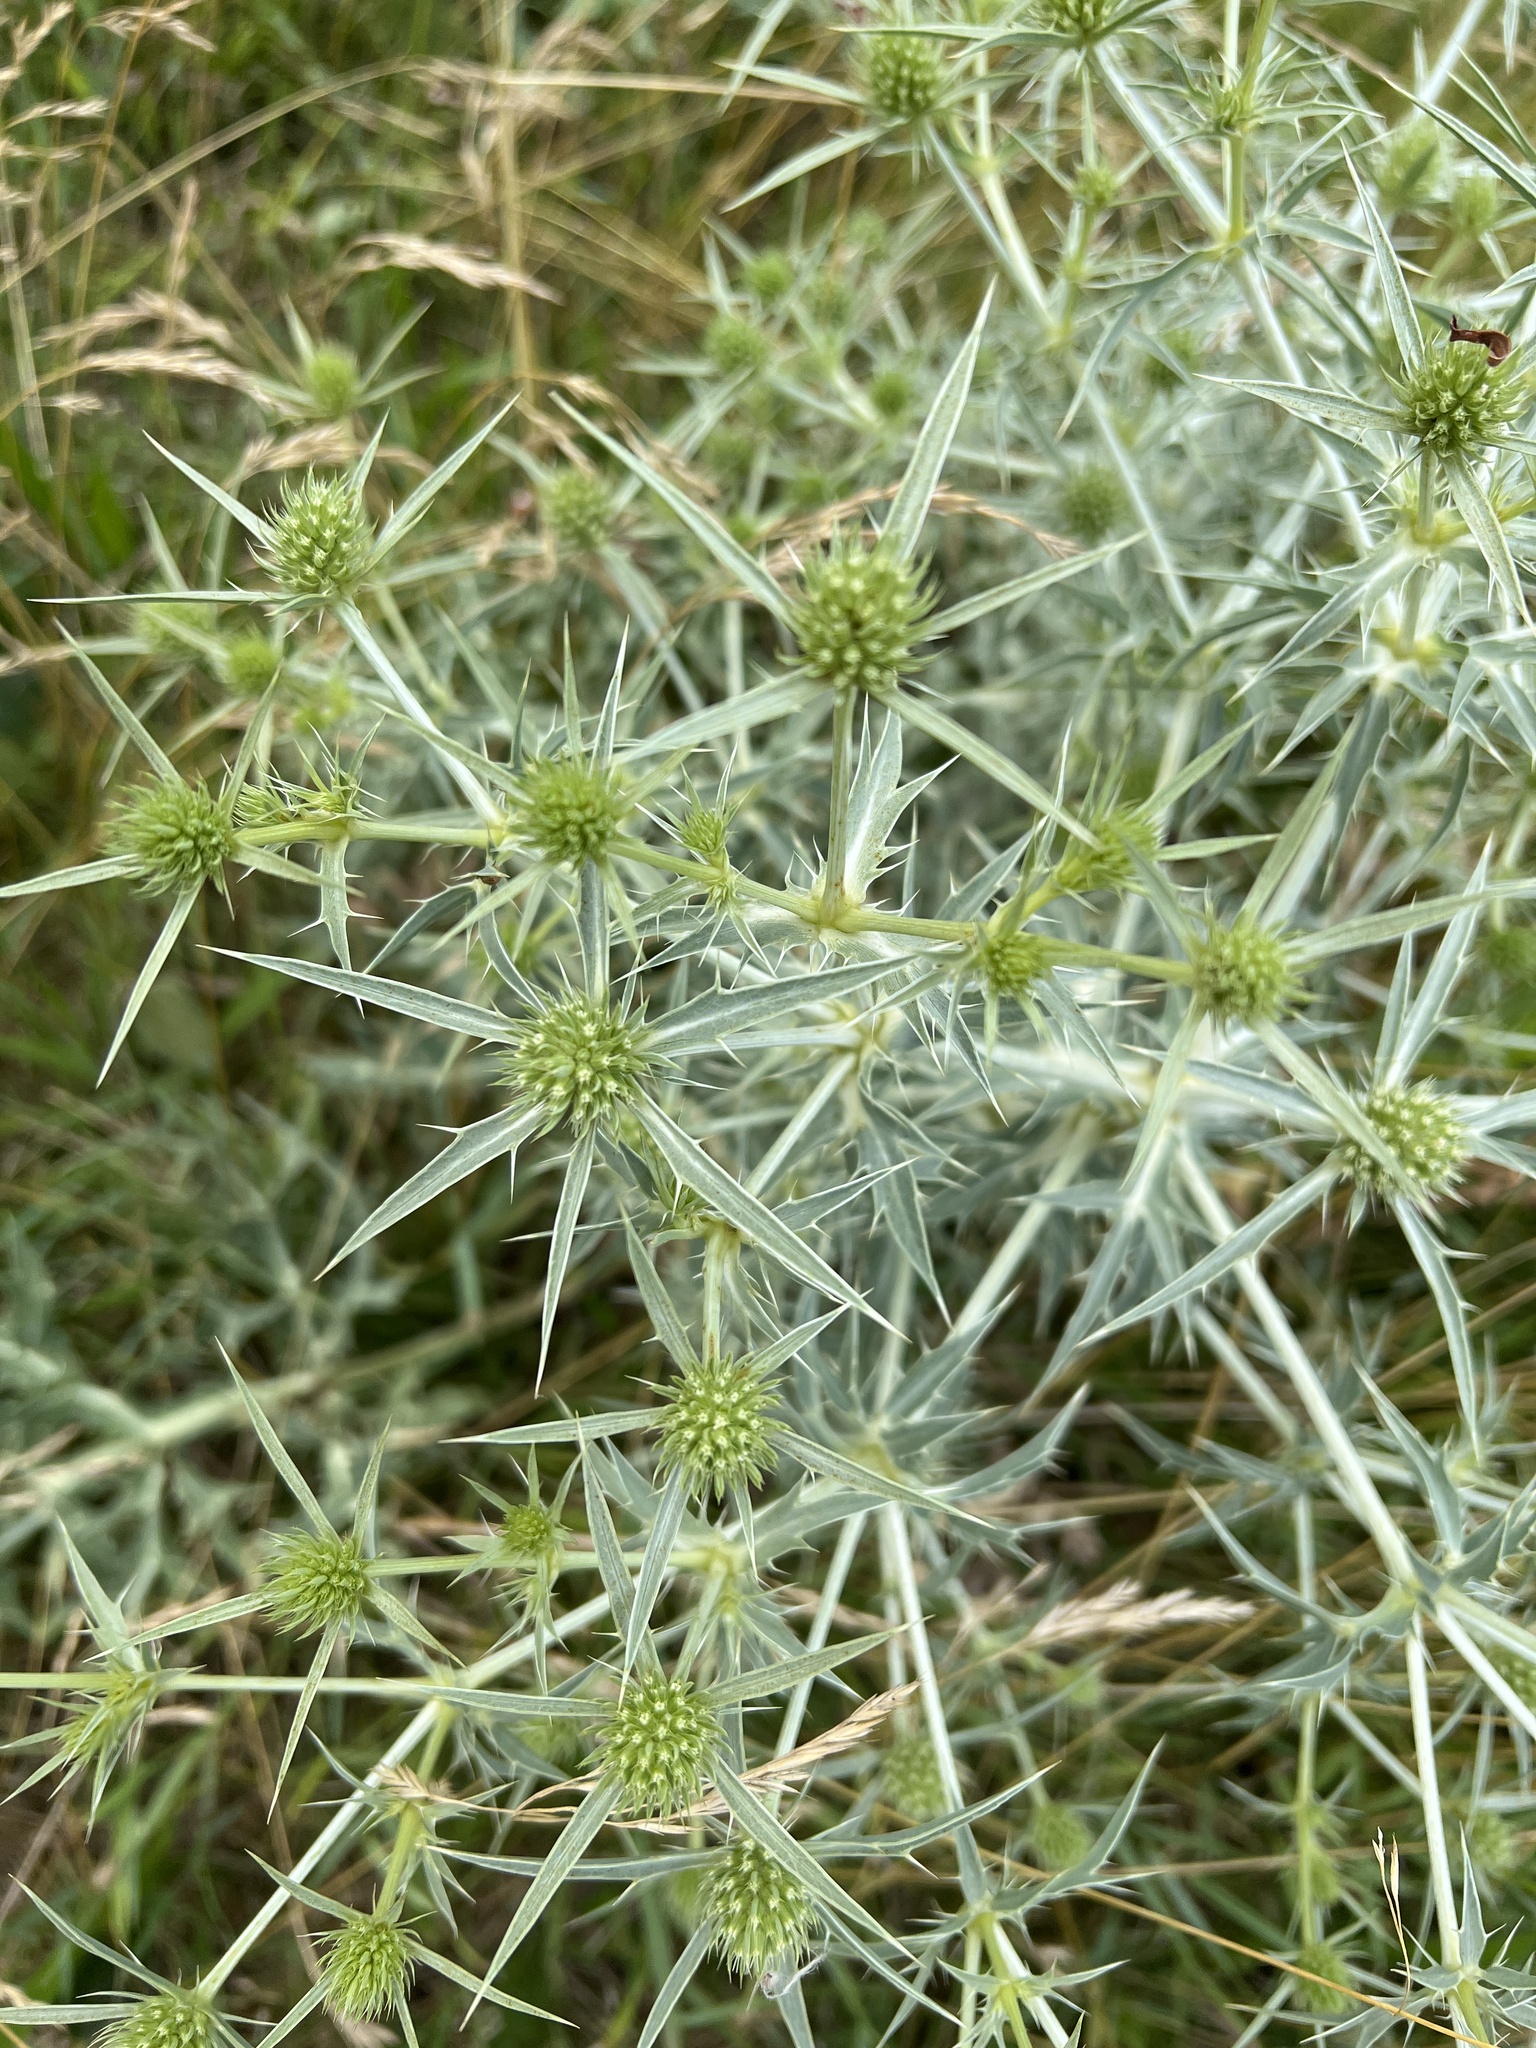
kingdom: Plantae
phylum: Tracheophyta
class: Magnoliopsida
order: Apiales
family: Apiaceae
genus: Eryngium
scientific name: Eryngium campestre
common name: Field eryngo
